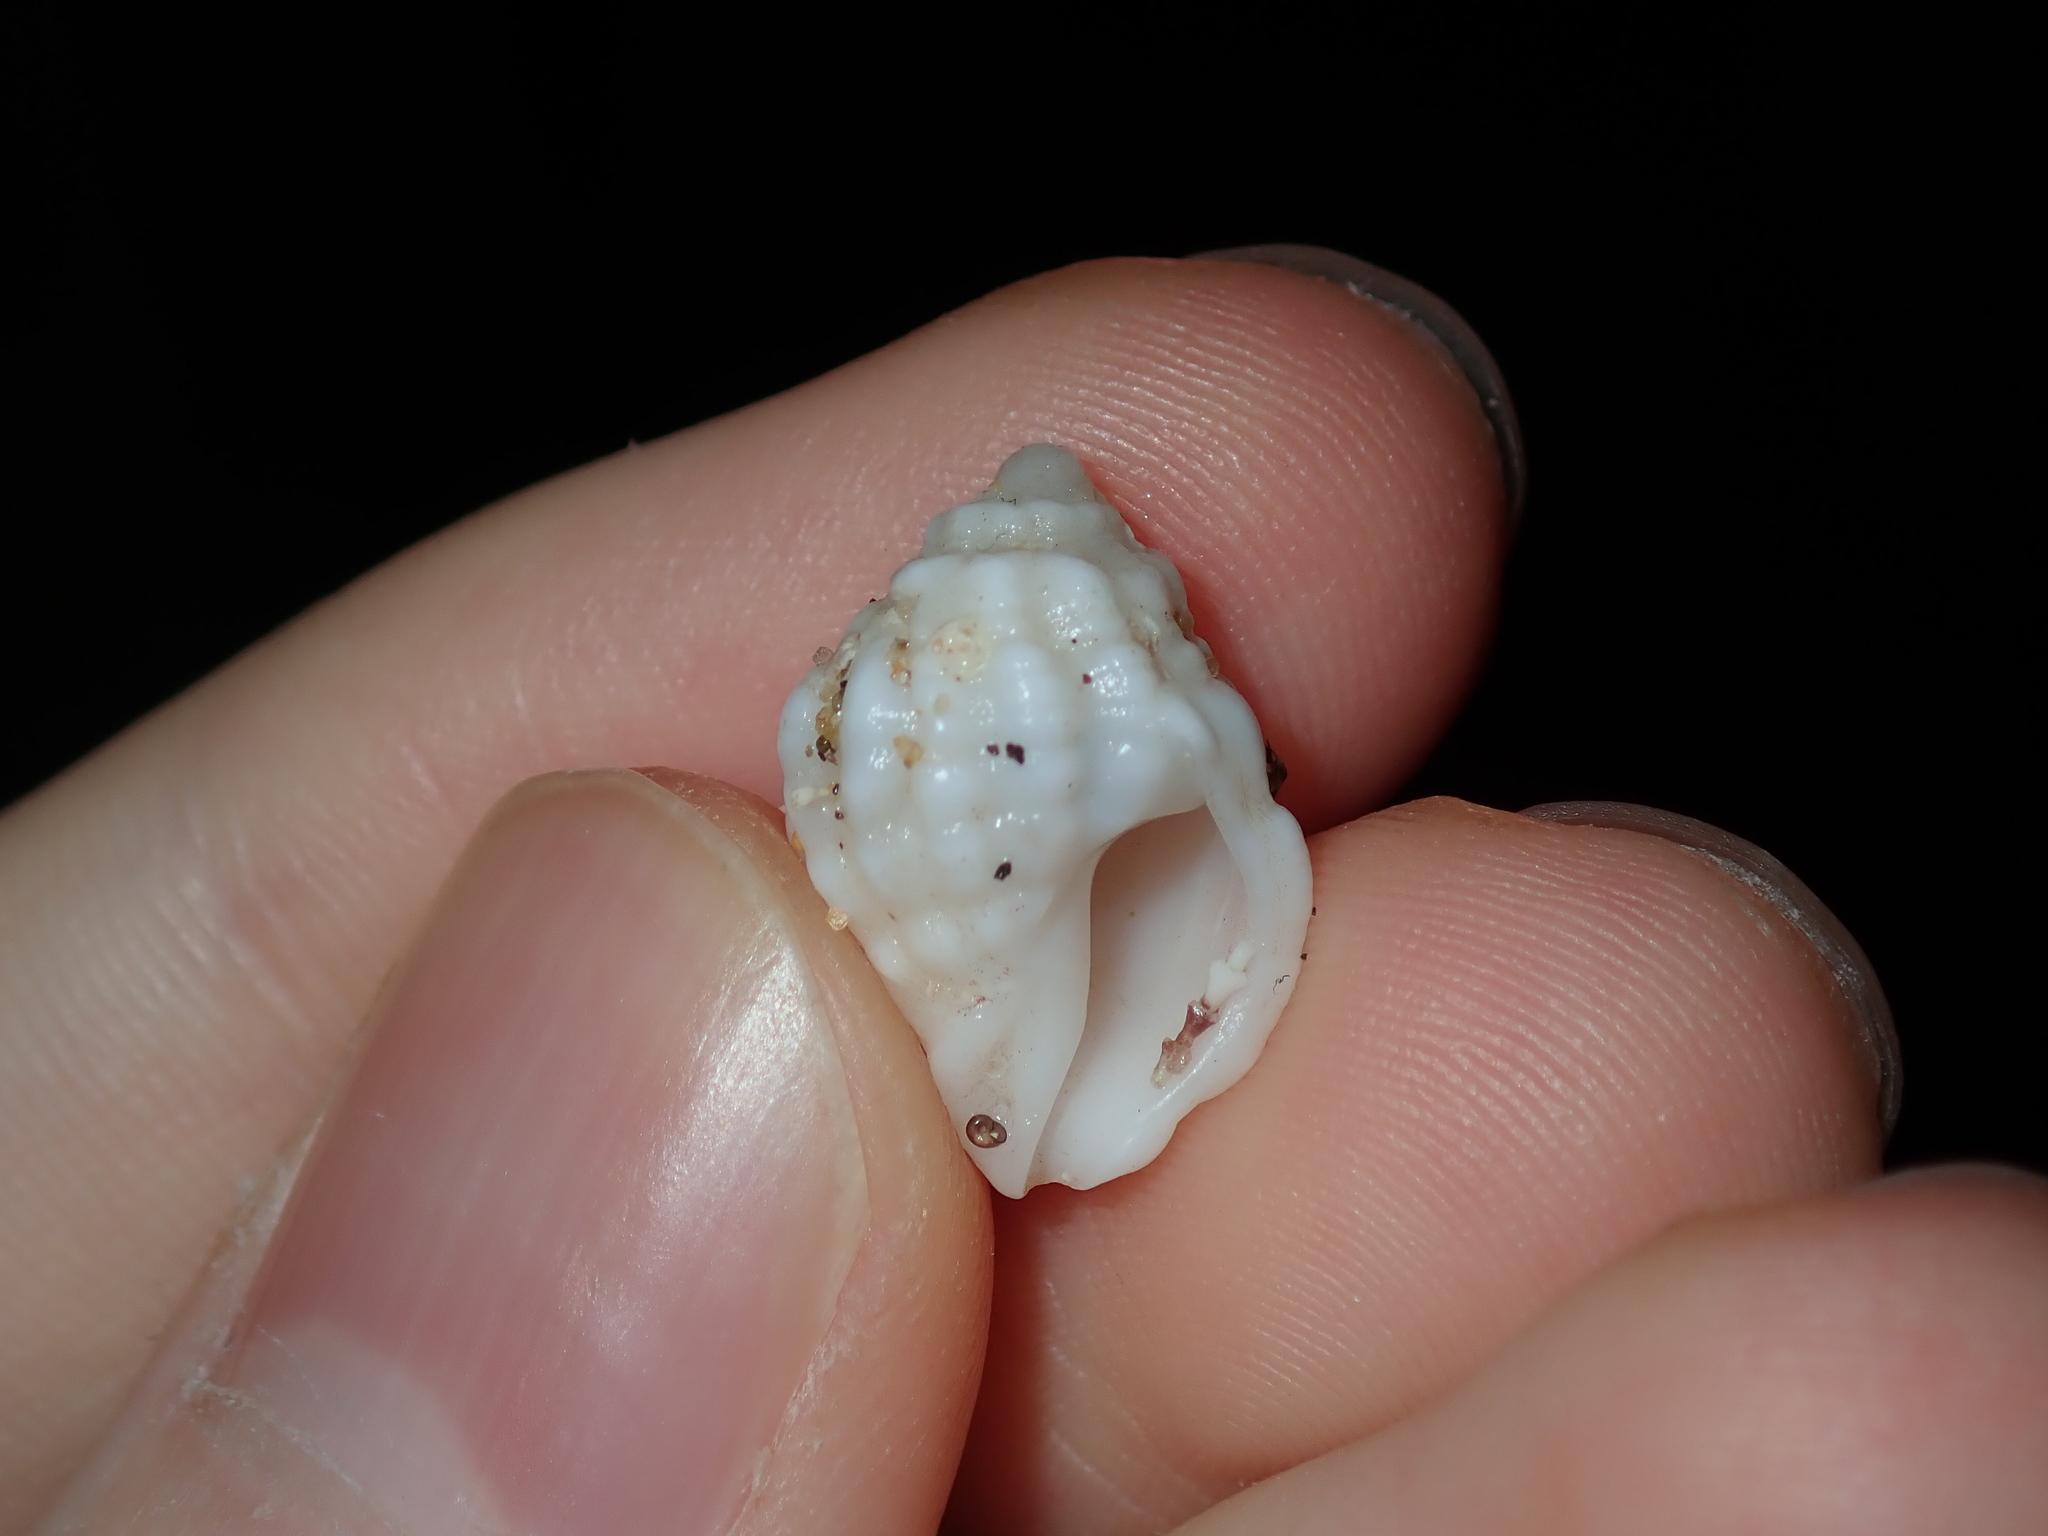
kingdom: Animalia
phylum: Mollusca
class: Gastropoda
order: Neogastropoda
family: Muricidae
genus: Oppomorus
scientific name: Oppomorus noduliferus
